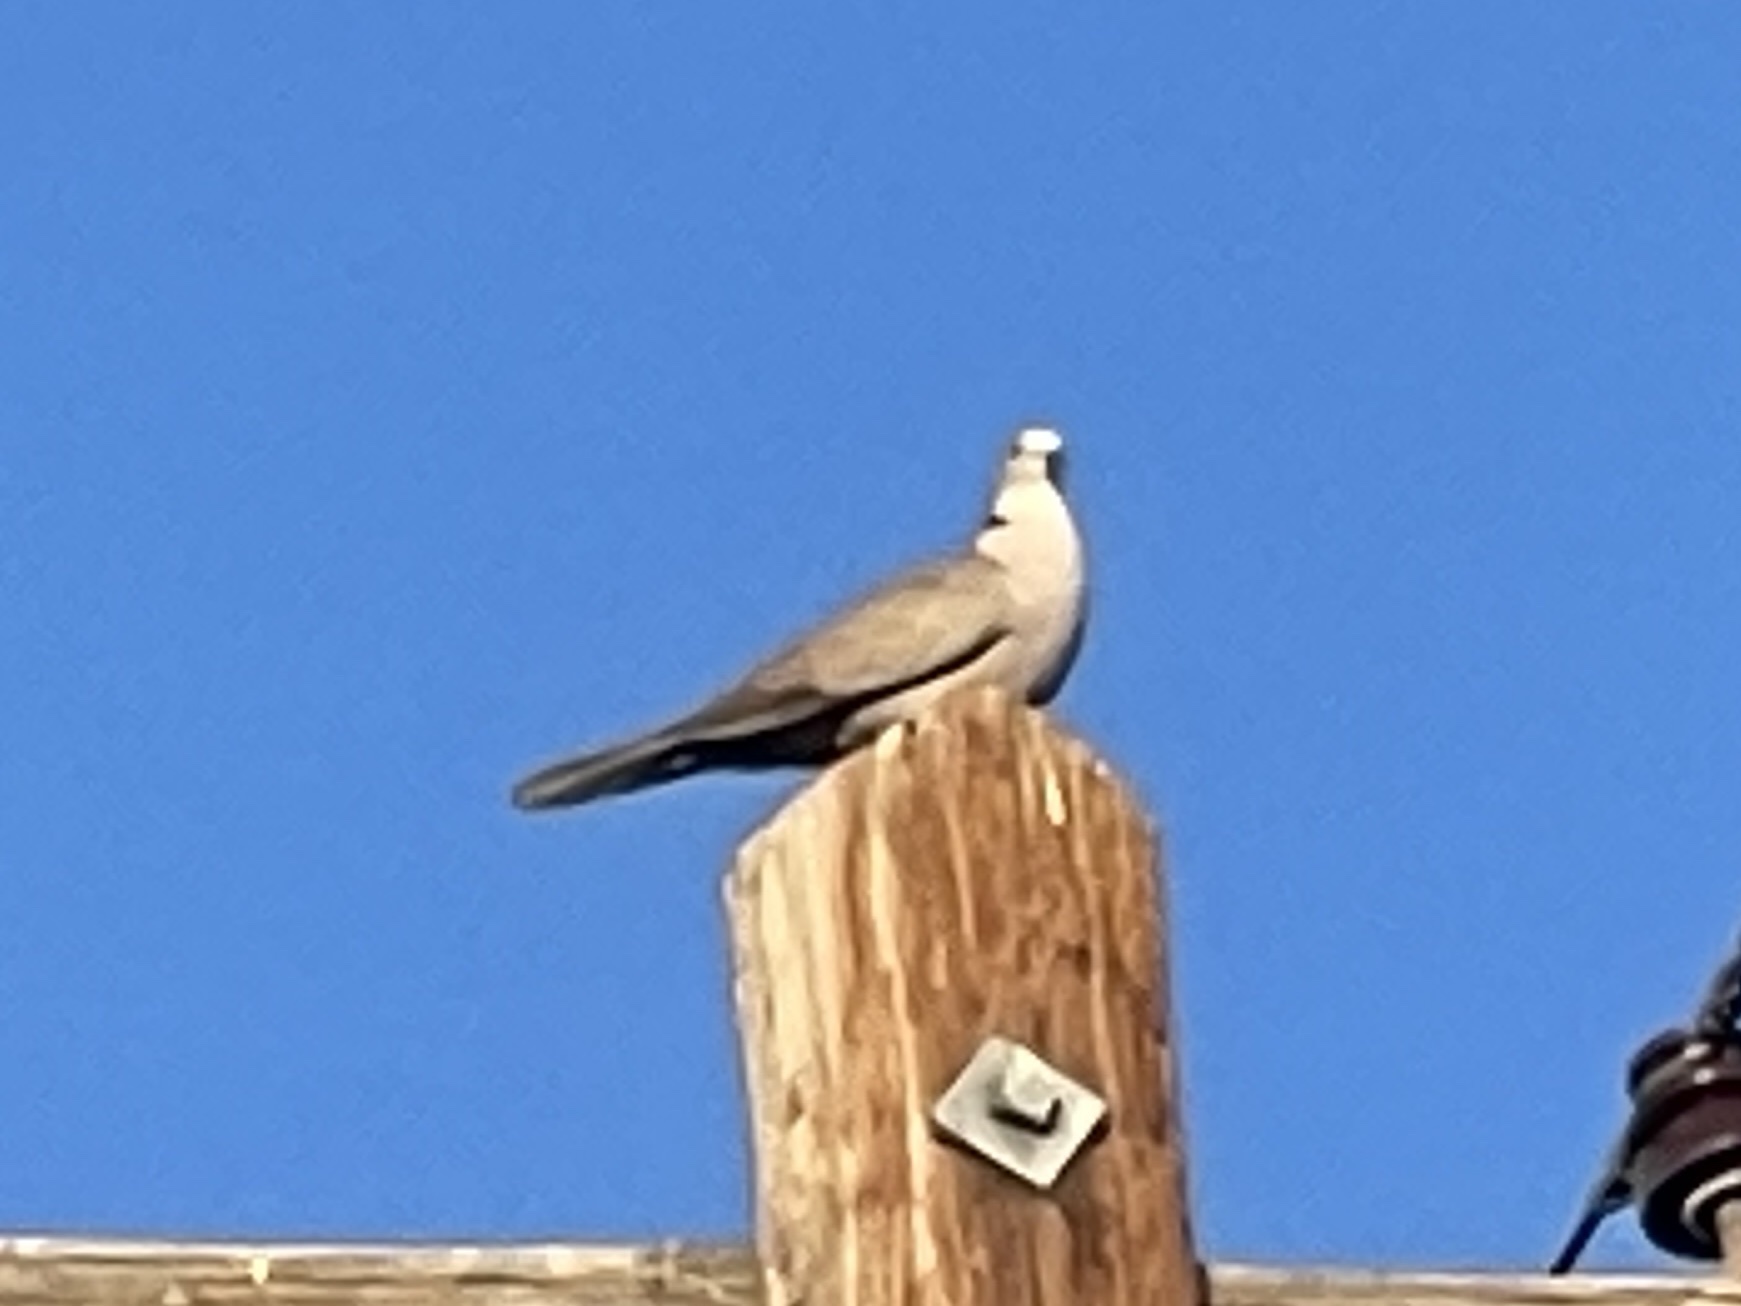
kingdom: Animalia
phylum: Chordata
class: Aves
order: Columbiformes
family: Columbidae
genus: Streptopelia
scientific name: Streptopelia decaocto
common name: Eurasian collared dove
